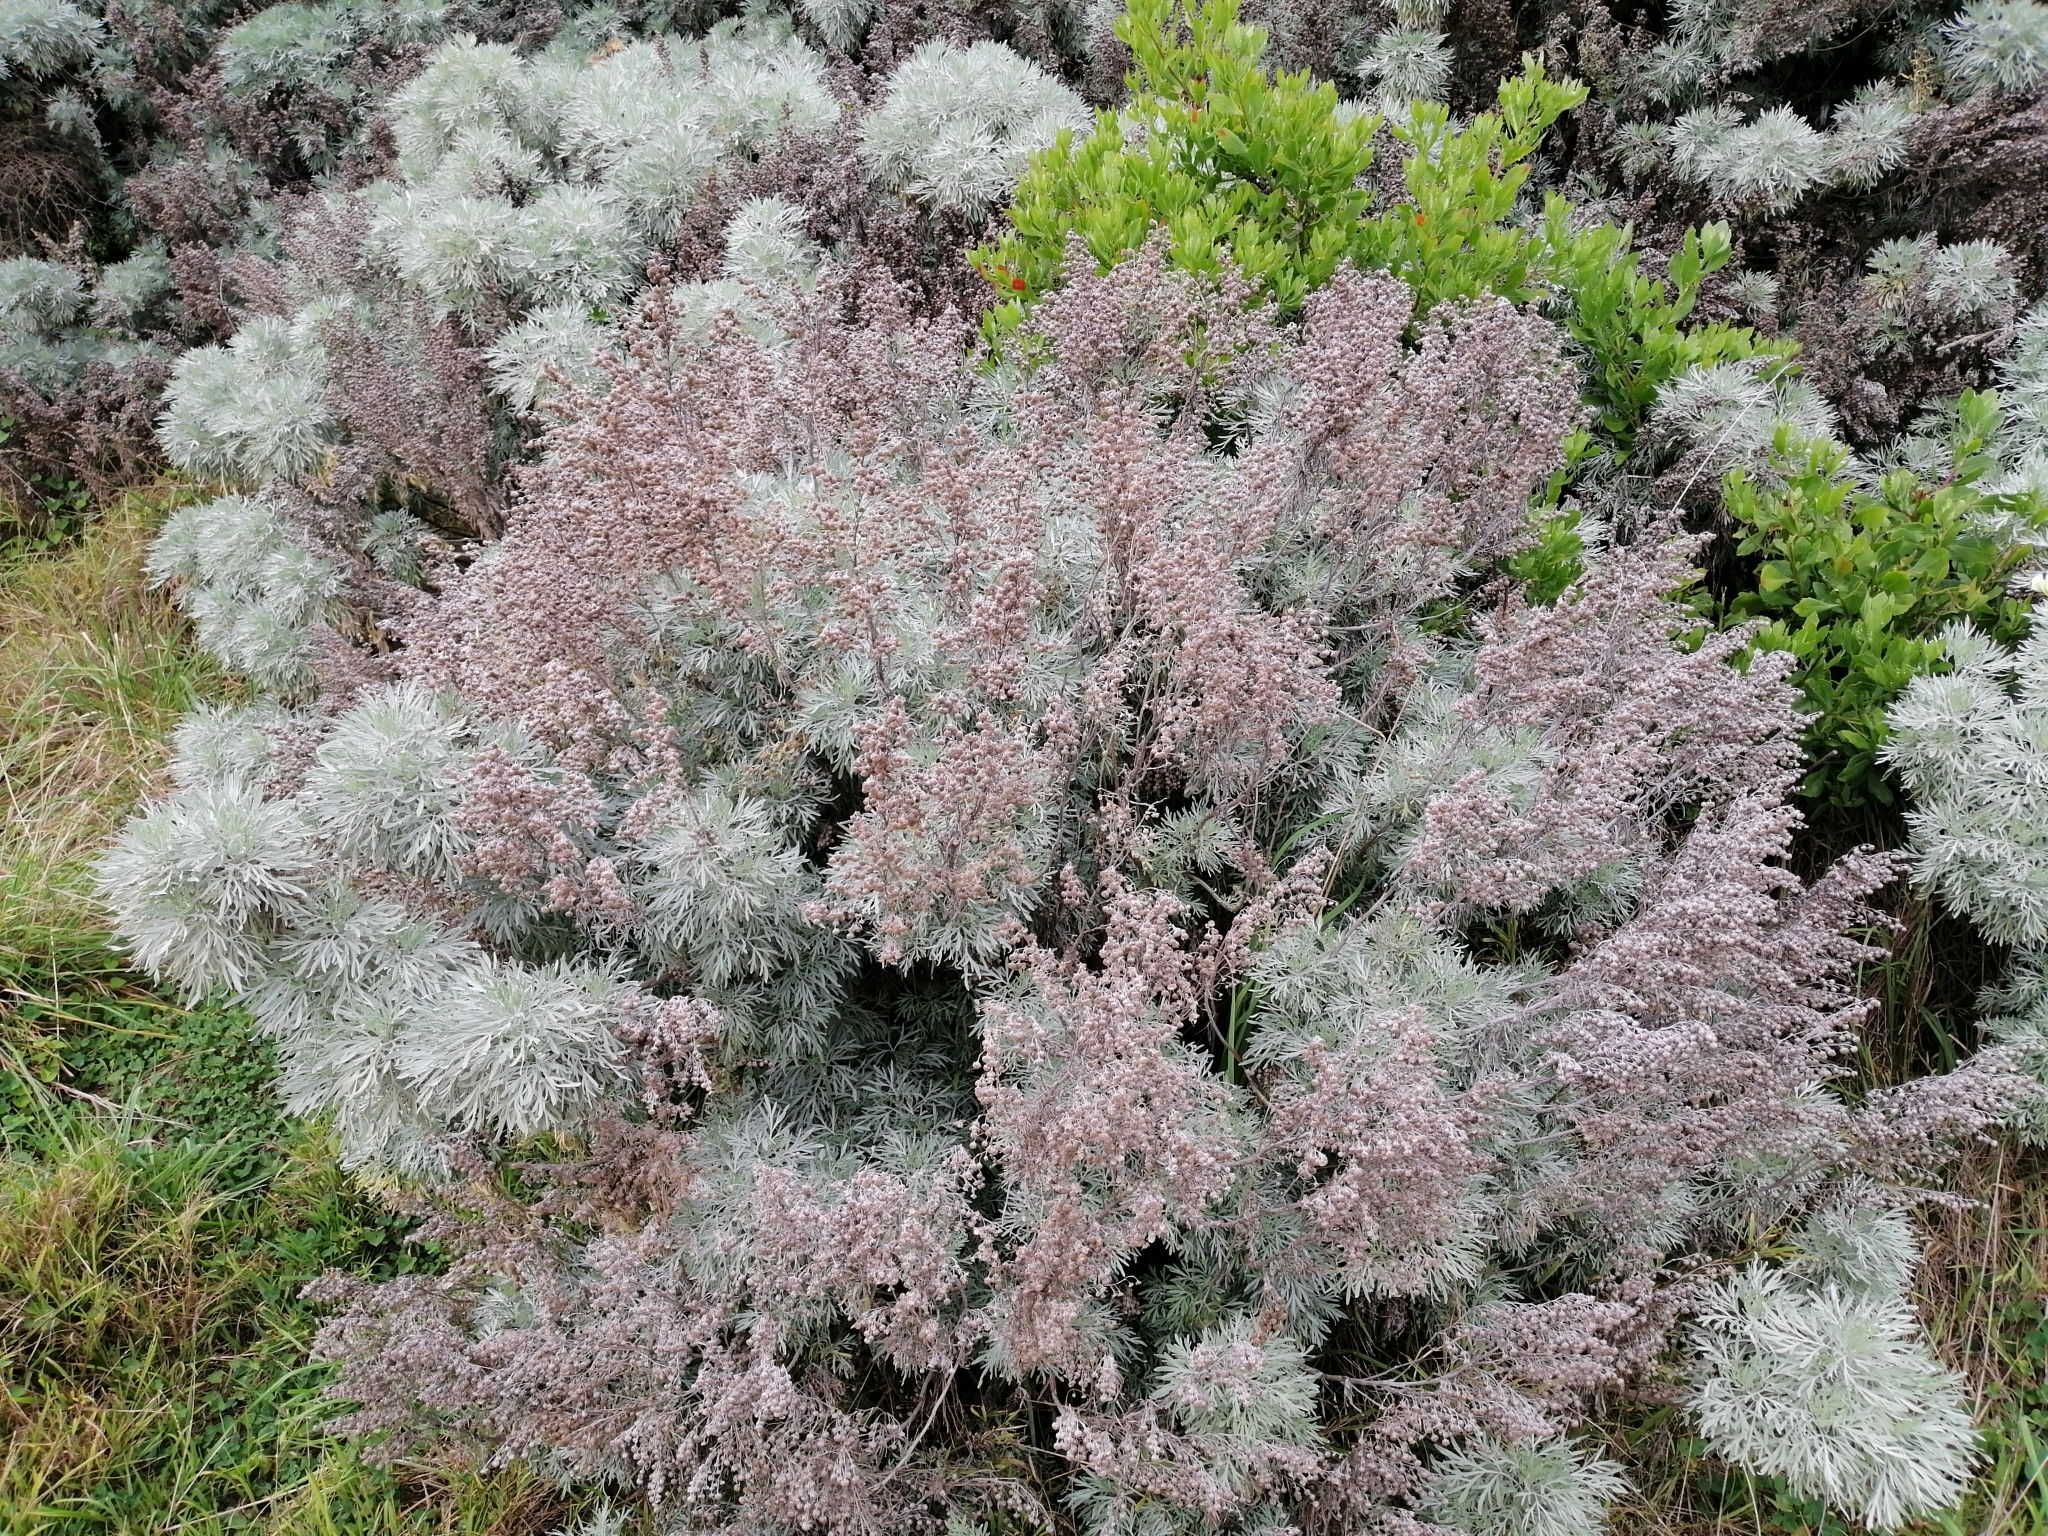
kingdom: Plantae
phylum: Tracheophyta
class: Magnoliopsida
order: Asterales
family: Asteraceae
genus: Artemisia
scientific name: Artemisia arborescens
